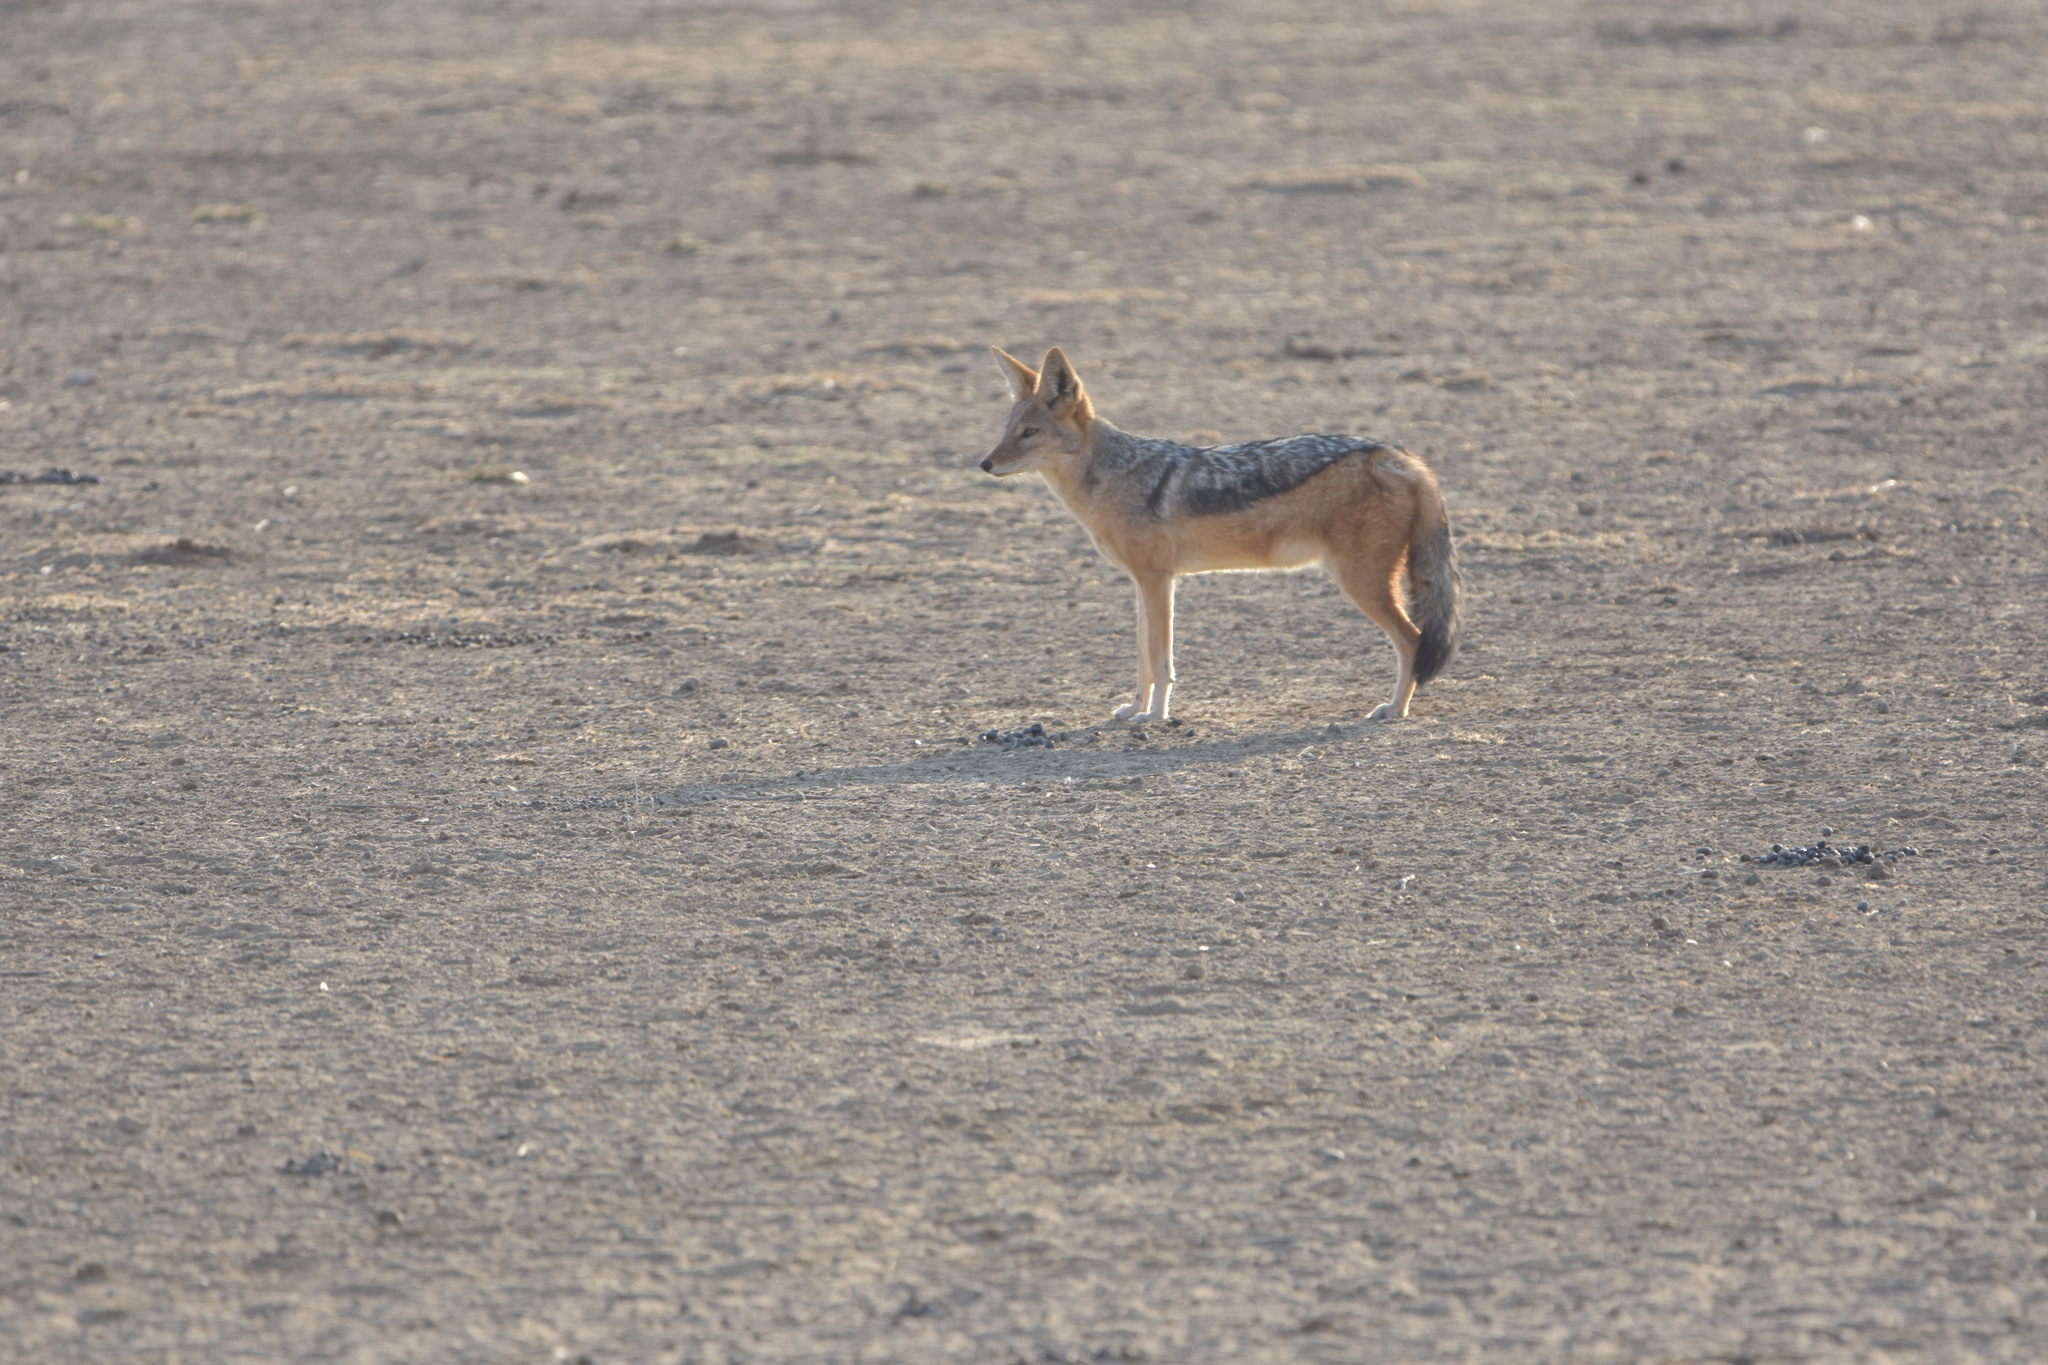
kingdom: Animalia
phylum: Chordata
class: Mammalia
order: Carnivora
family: Canidae
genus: Lupulella
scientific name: Lupulella
